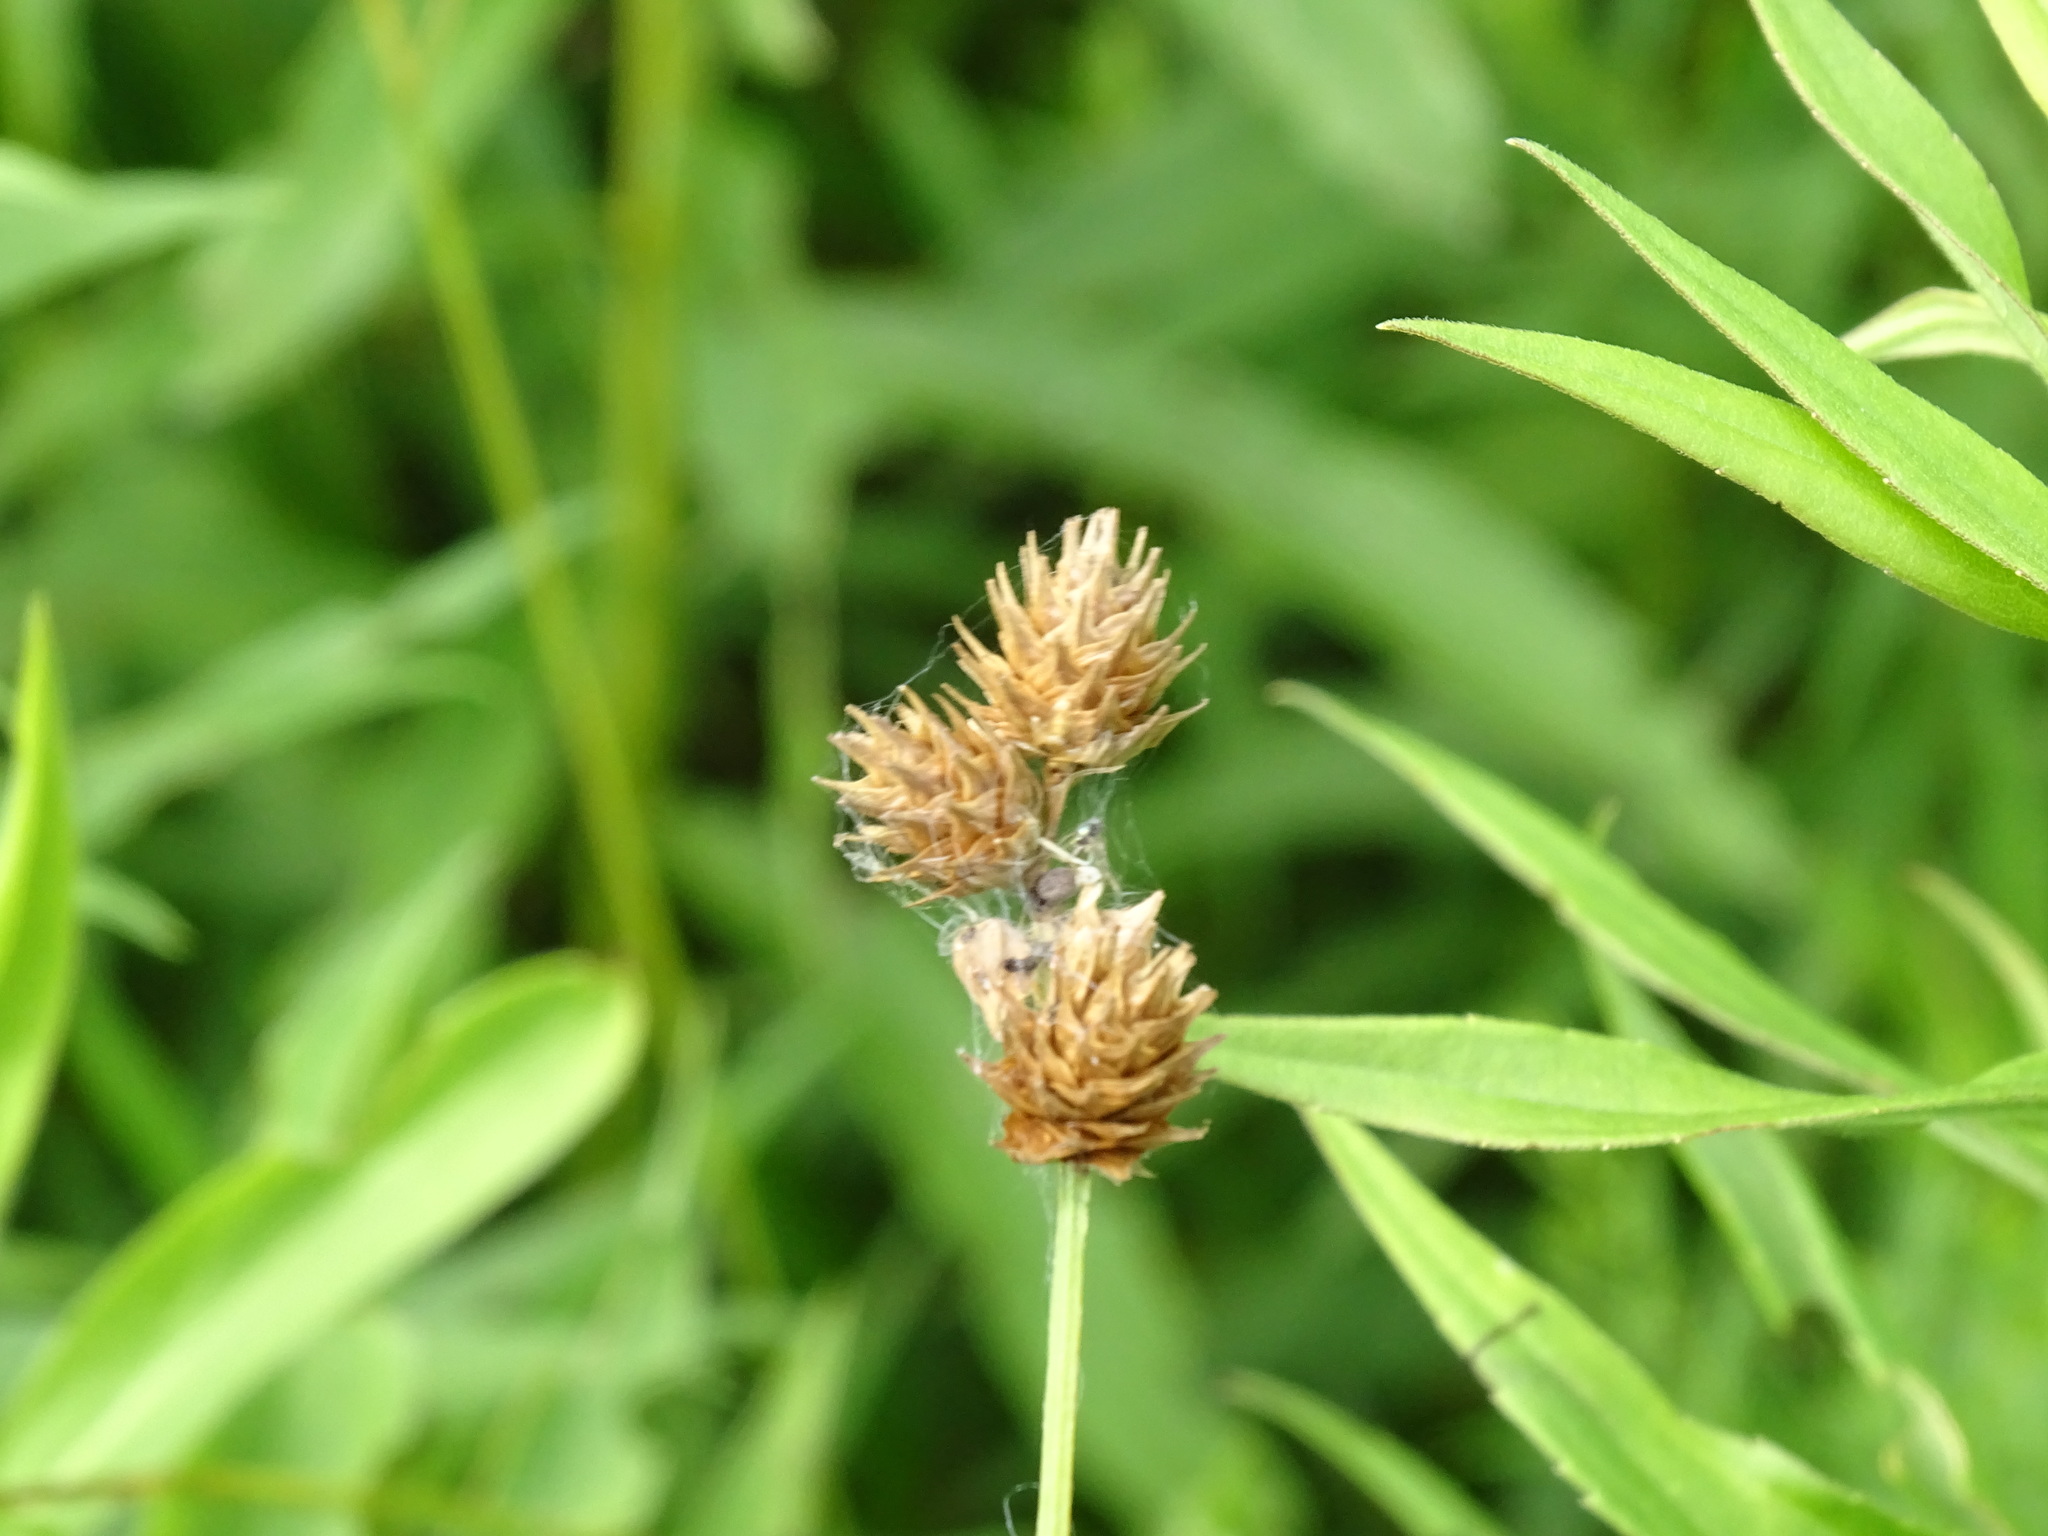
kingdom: Plantae
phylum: Tracheophyta
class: Liliopsida
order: Poales
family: Cyperaceae
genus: Carex
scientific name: Carex molesta
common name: Troublesome sedge
